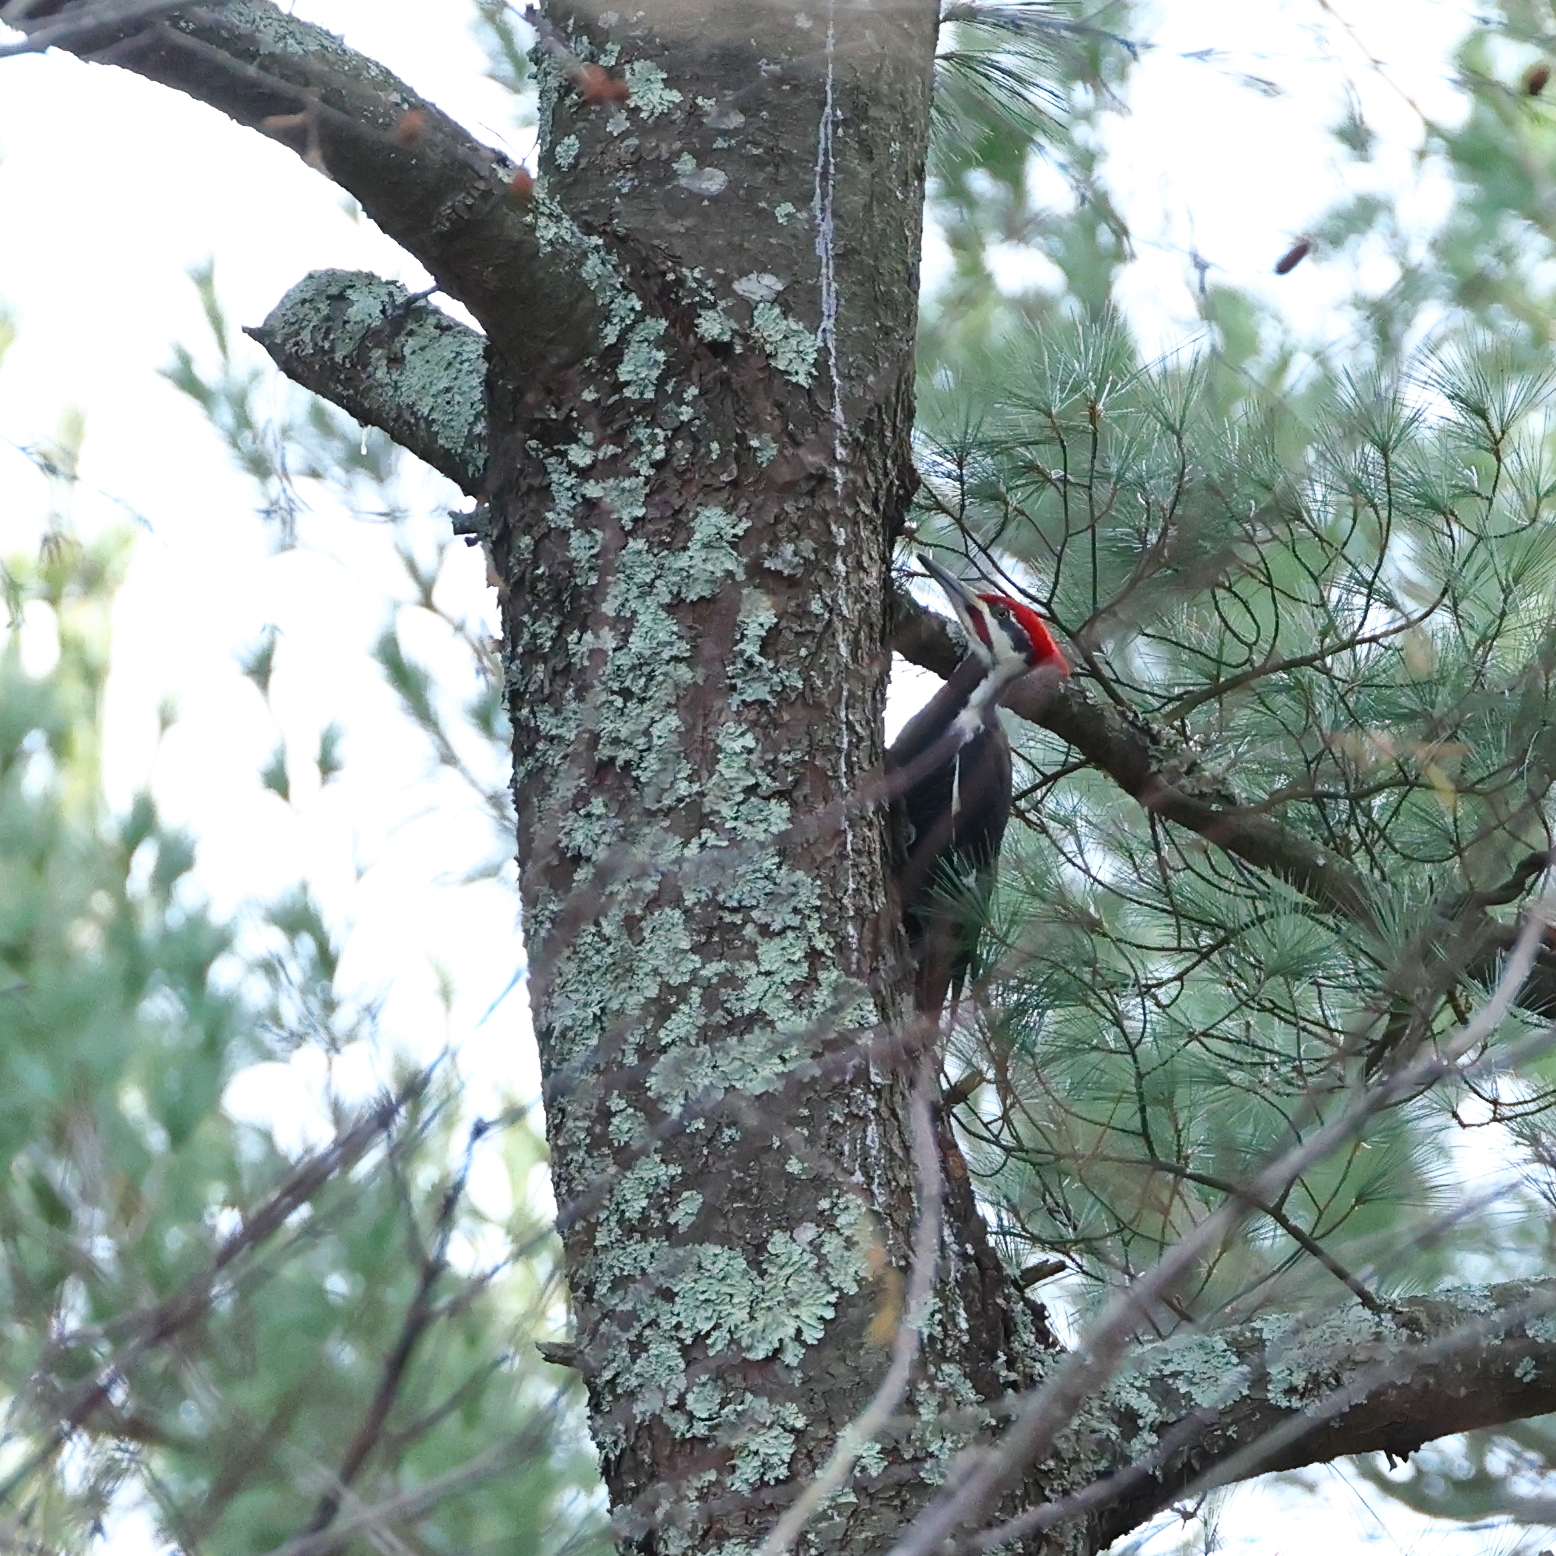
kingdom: Animalia
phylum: Chordata
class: Aves
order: Piciformes
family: Picidae
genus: Dryocopus
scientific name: Dryocopus pileatus
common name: Pileated woodpecker
